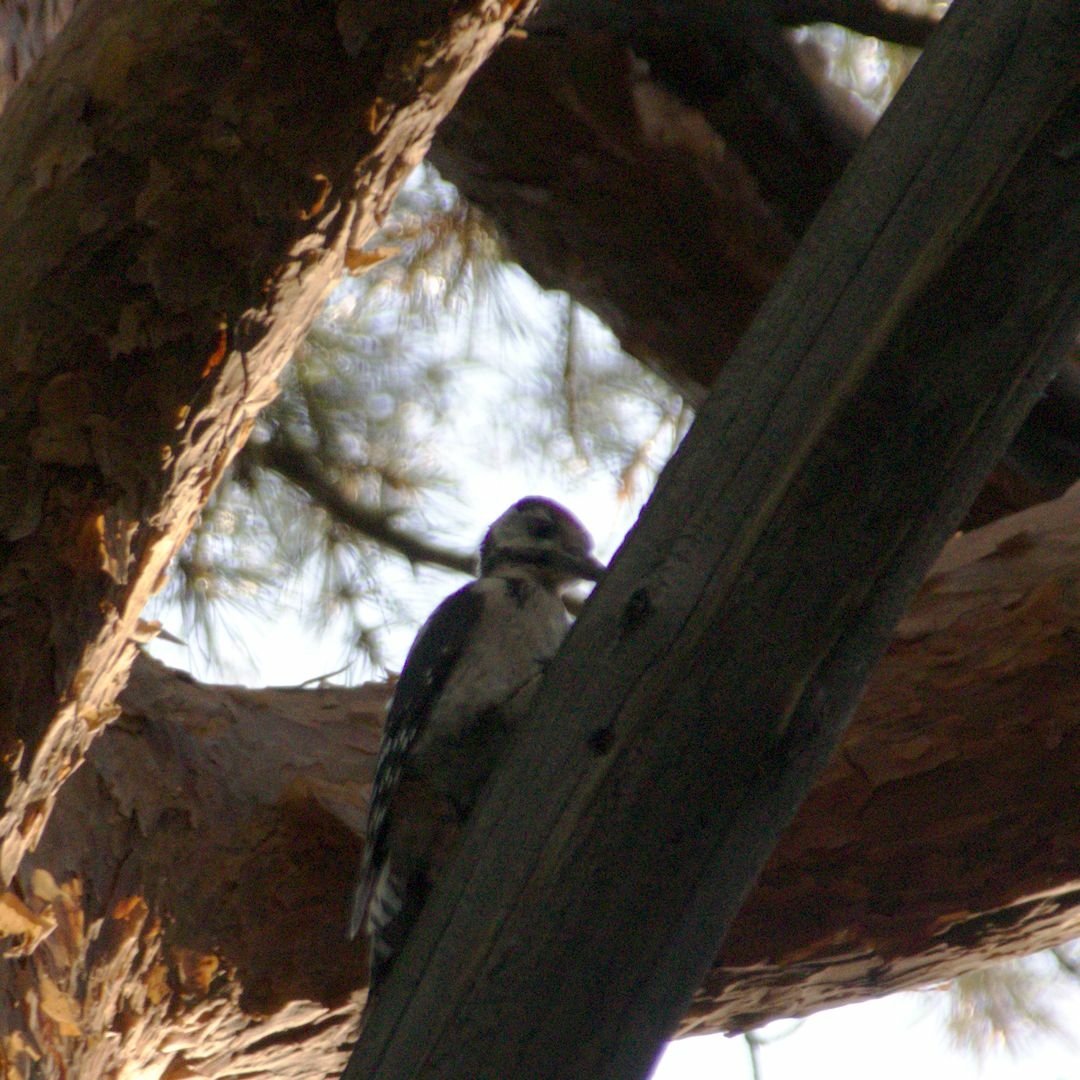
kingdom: Animalia
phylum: Chordata
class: Aves
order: Piciformes
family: Picidae
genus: Dendrocopos
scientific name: Dendrocopos major
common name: Great spotted woodpecker
